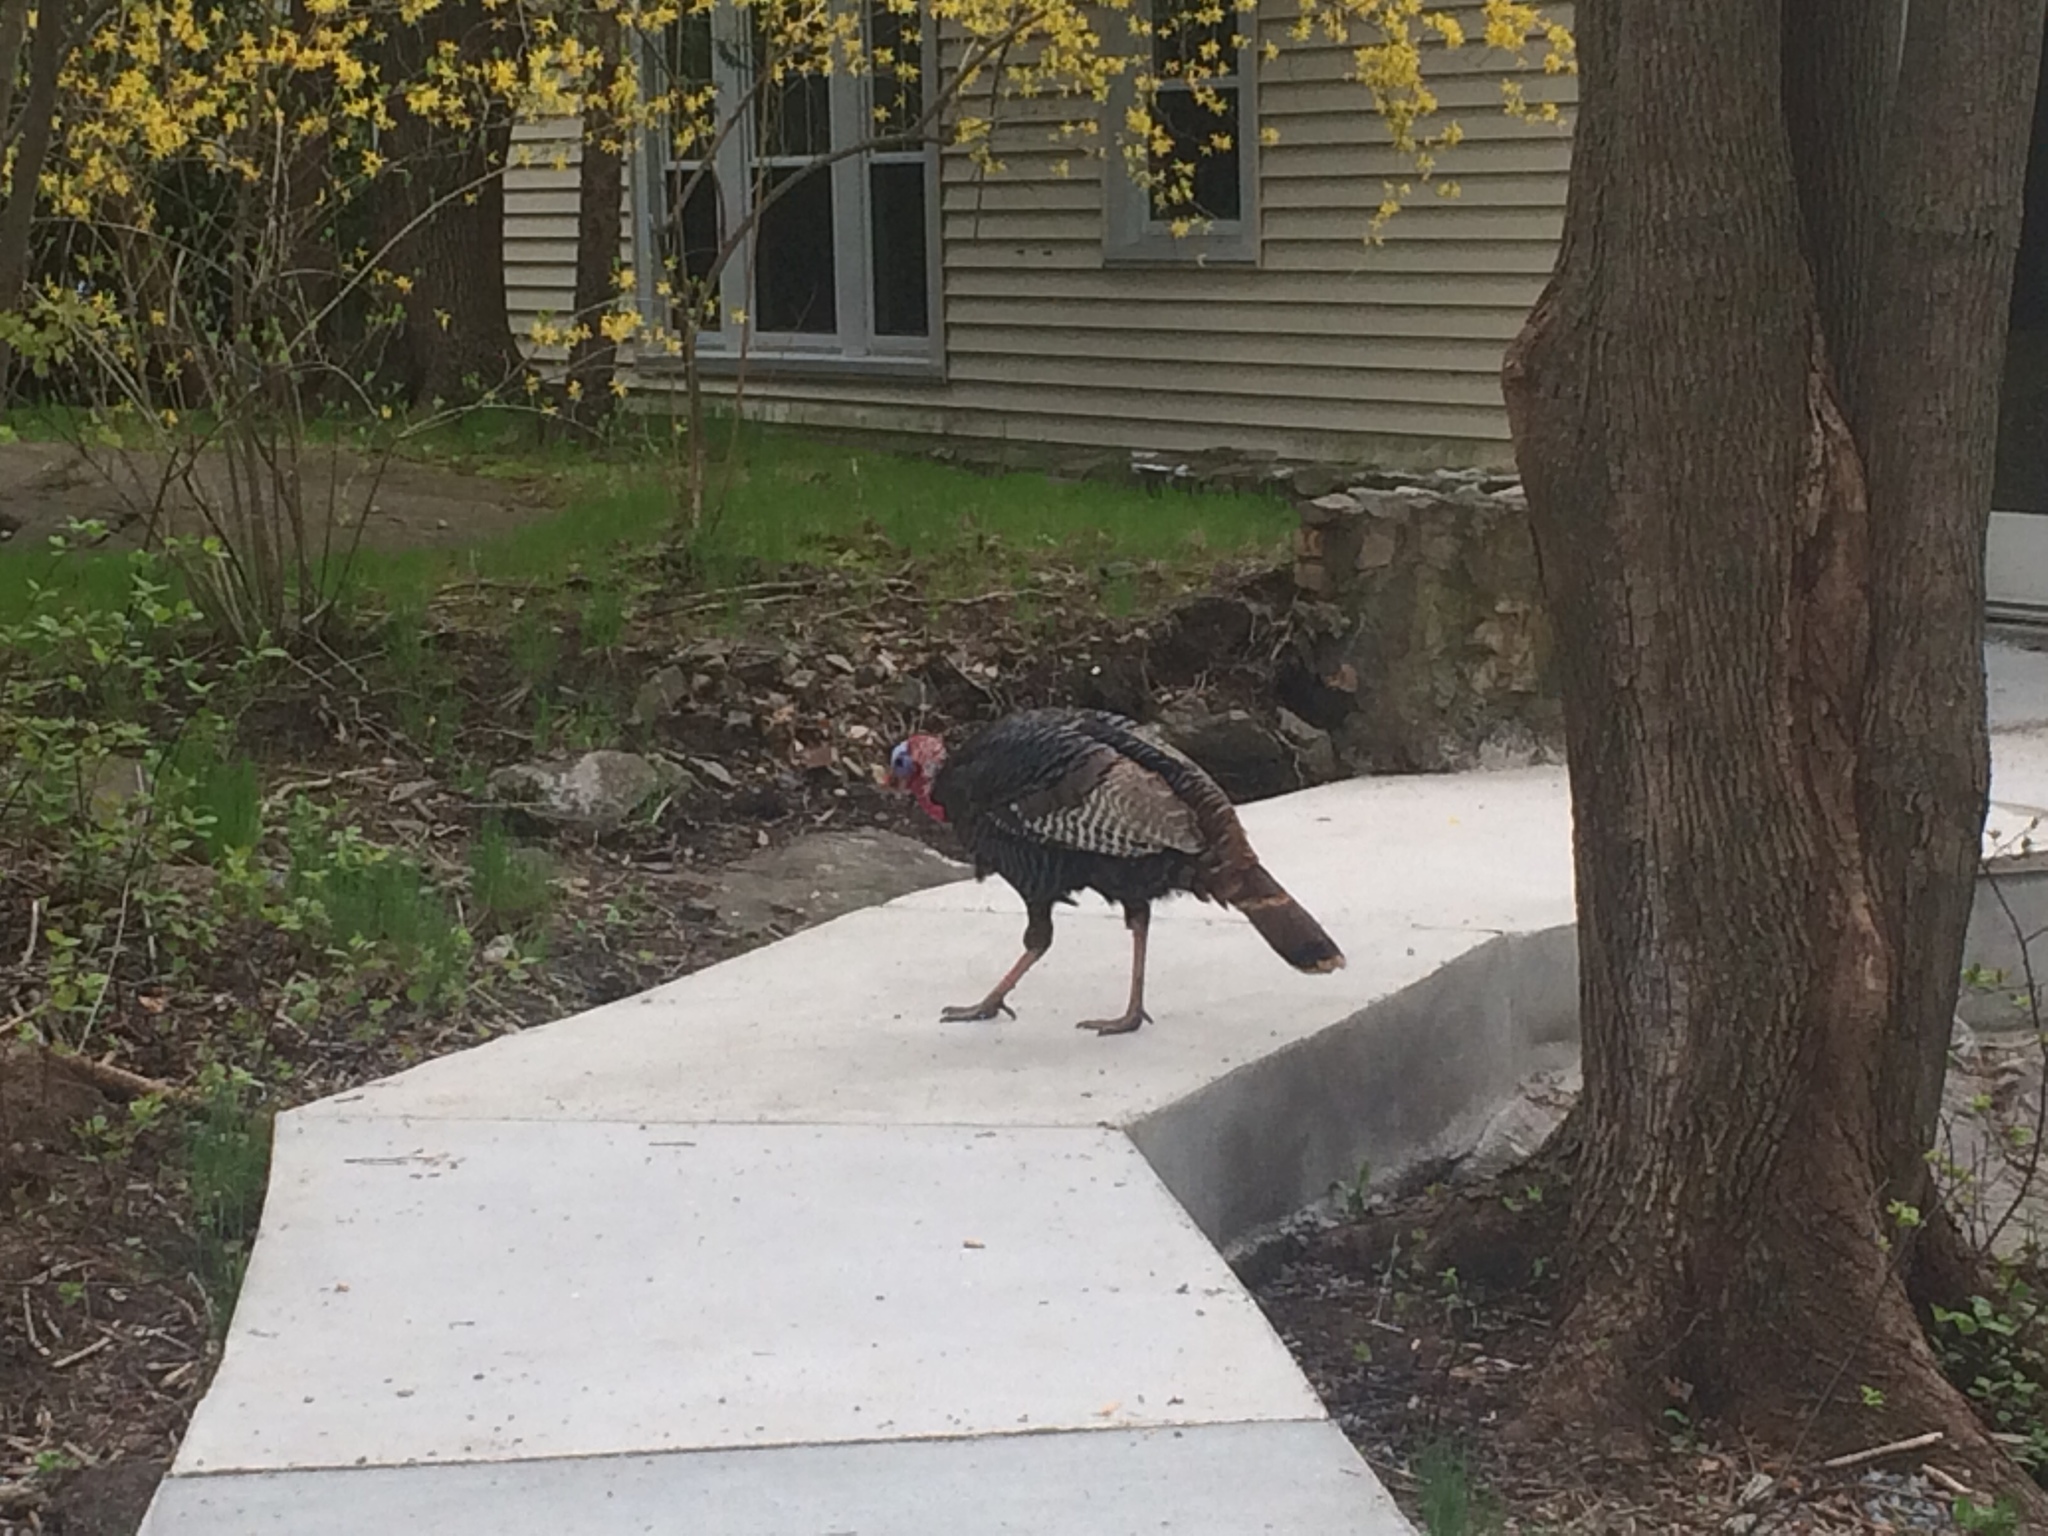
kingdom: Animalia
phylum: Chordata
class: Aves
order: Galliformes
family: Phasianidae
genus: Meleagris
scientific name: Meleagris gallopavo
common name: Wild turkey
